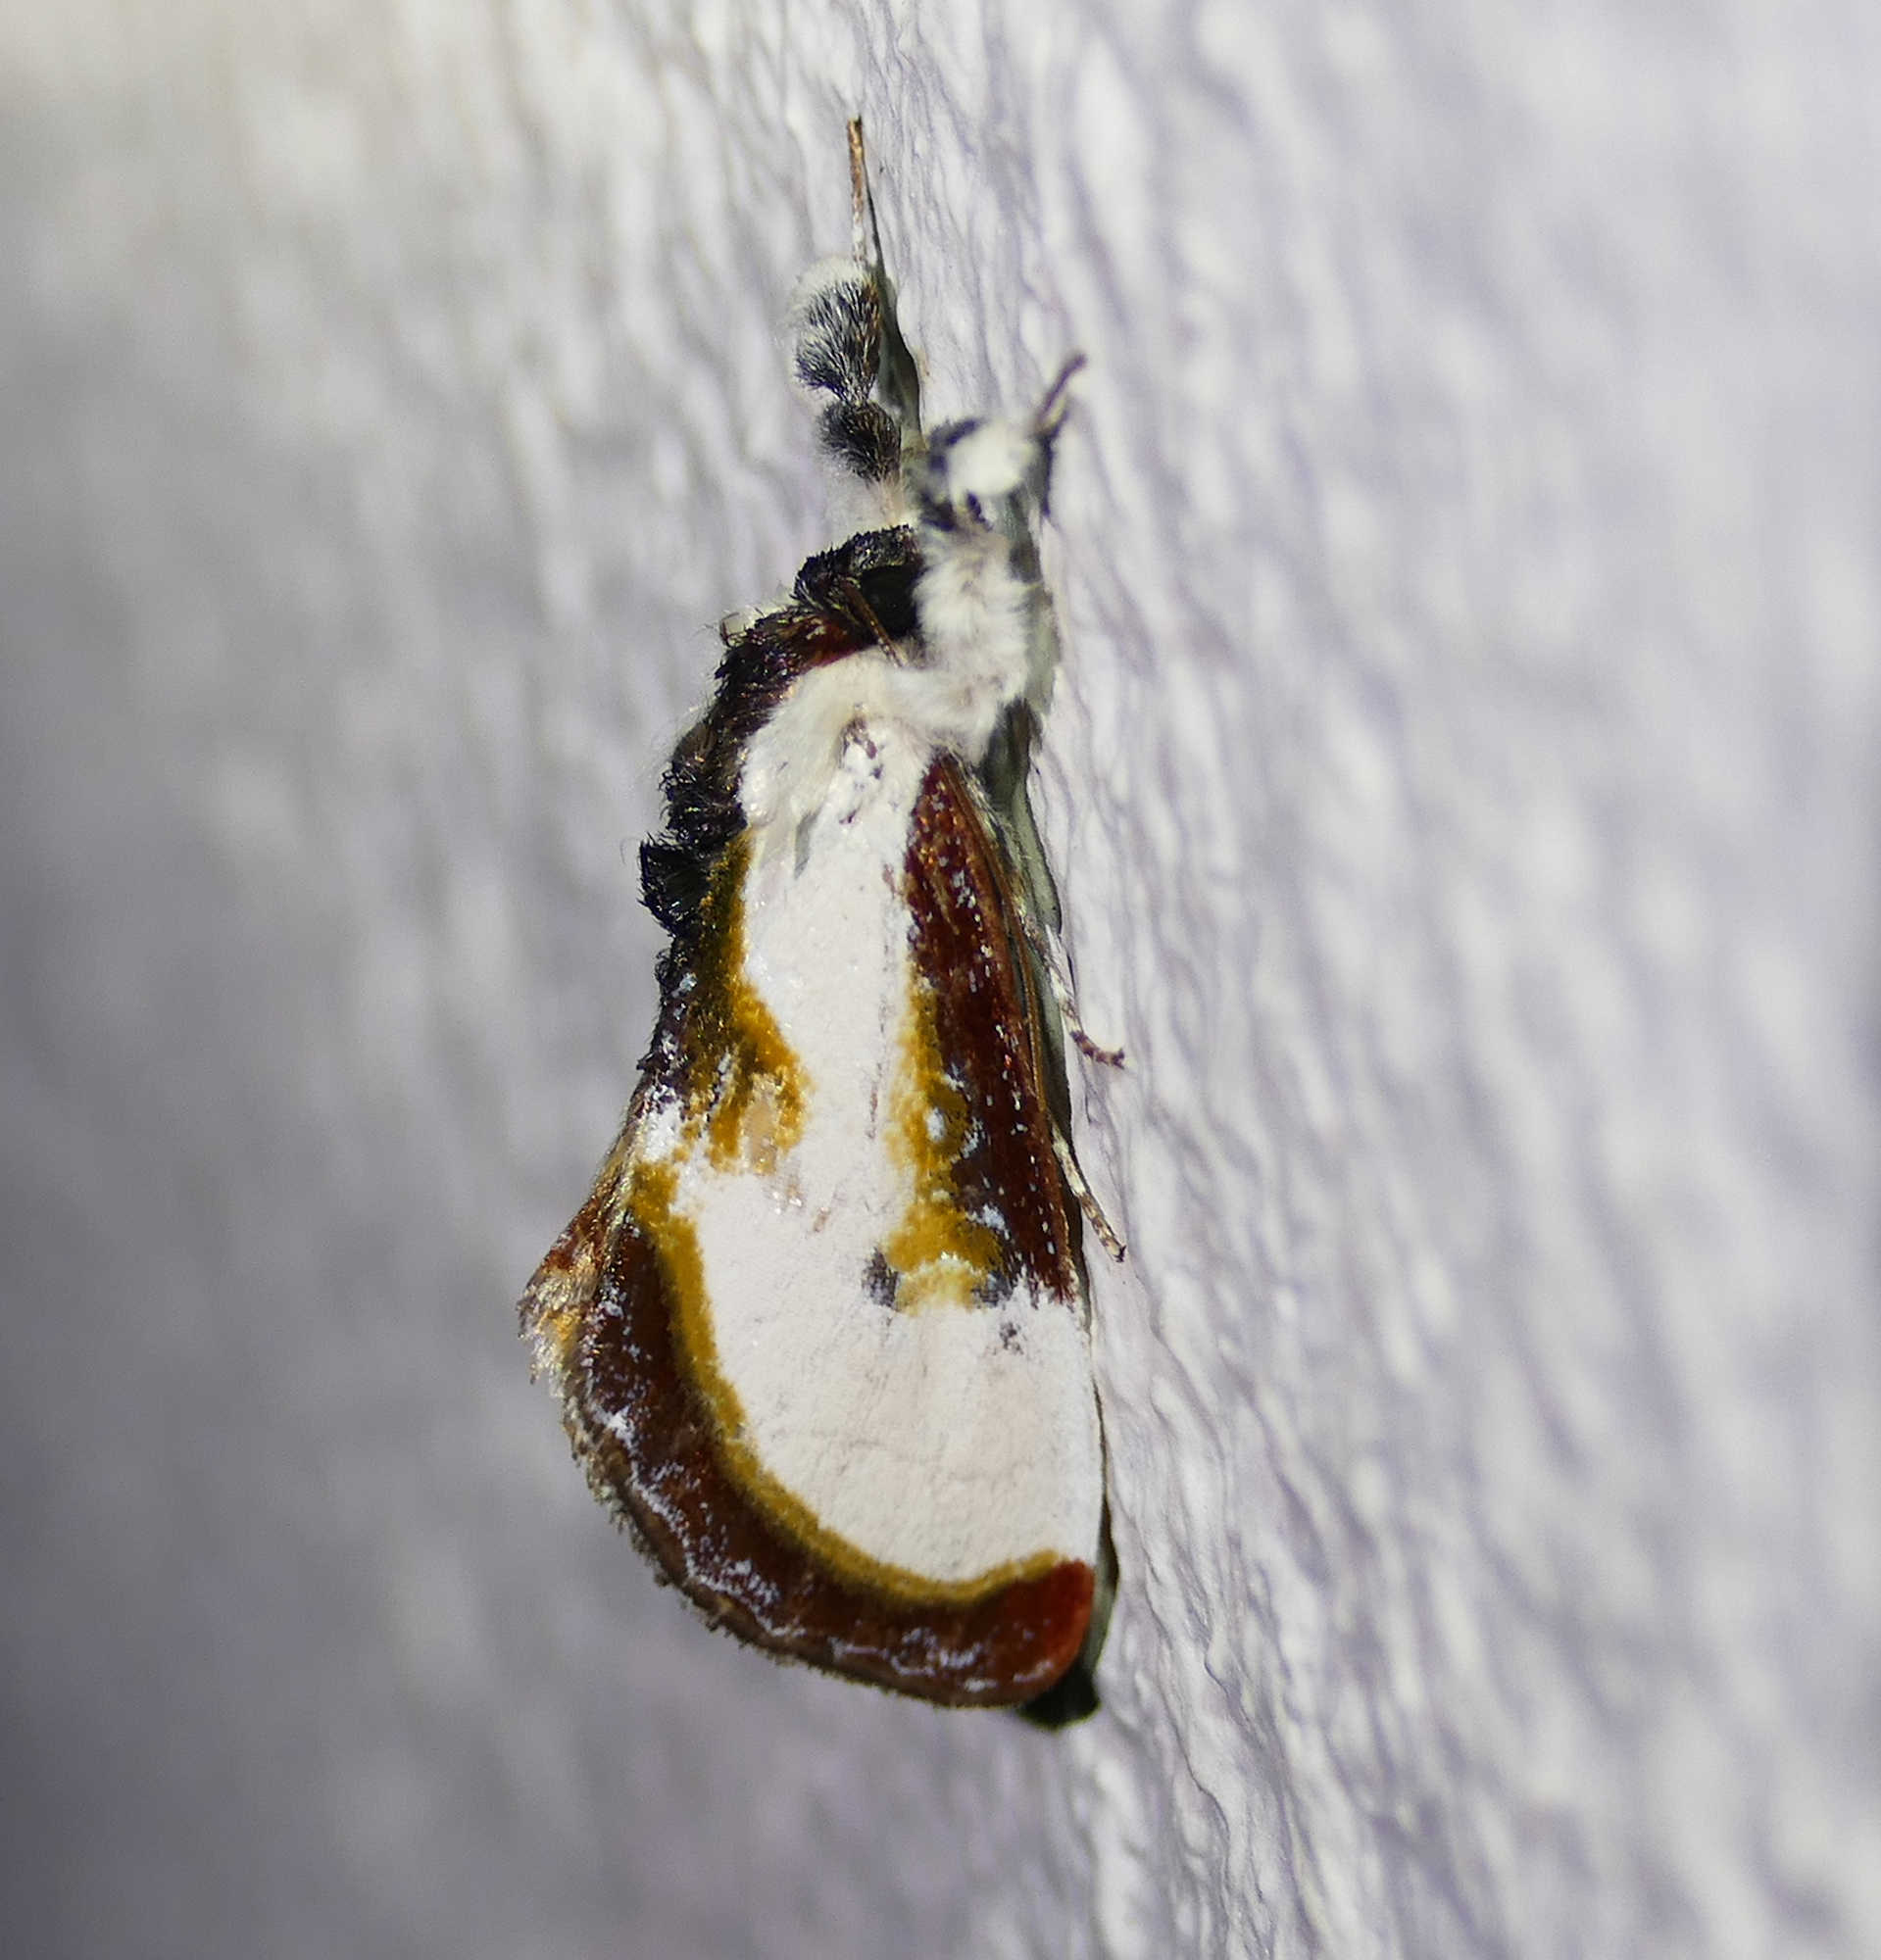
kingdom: Animalia
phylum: Arthropoda
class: Insecta
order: Lepidoptera
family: Noctuidae
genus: Eudryas
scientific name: Eudryas grata
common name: Beautiful wood-nymph
